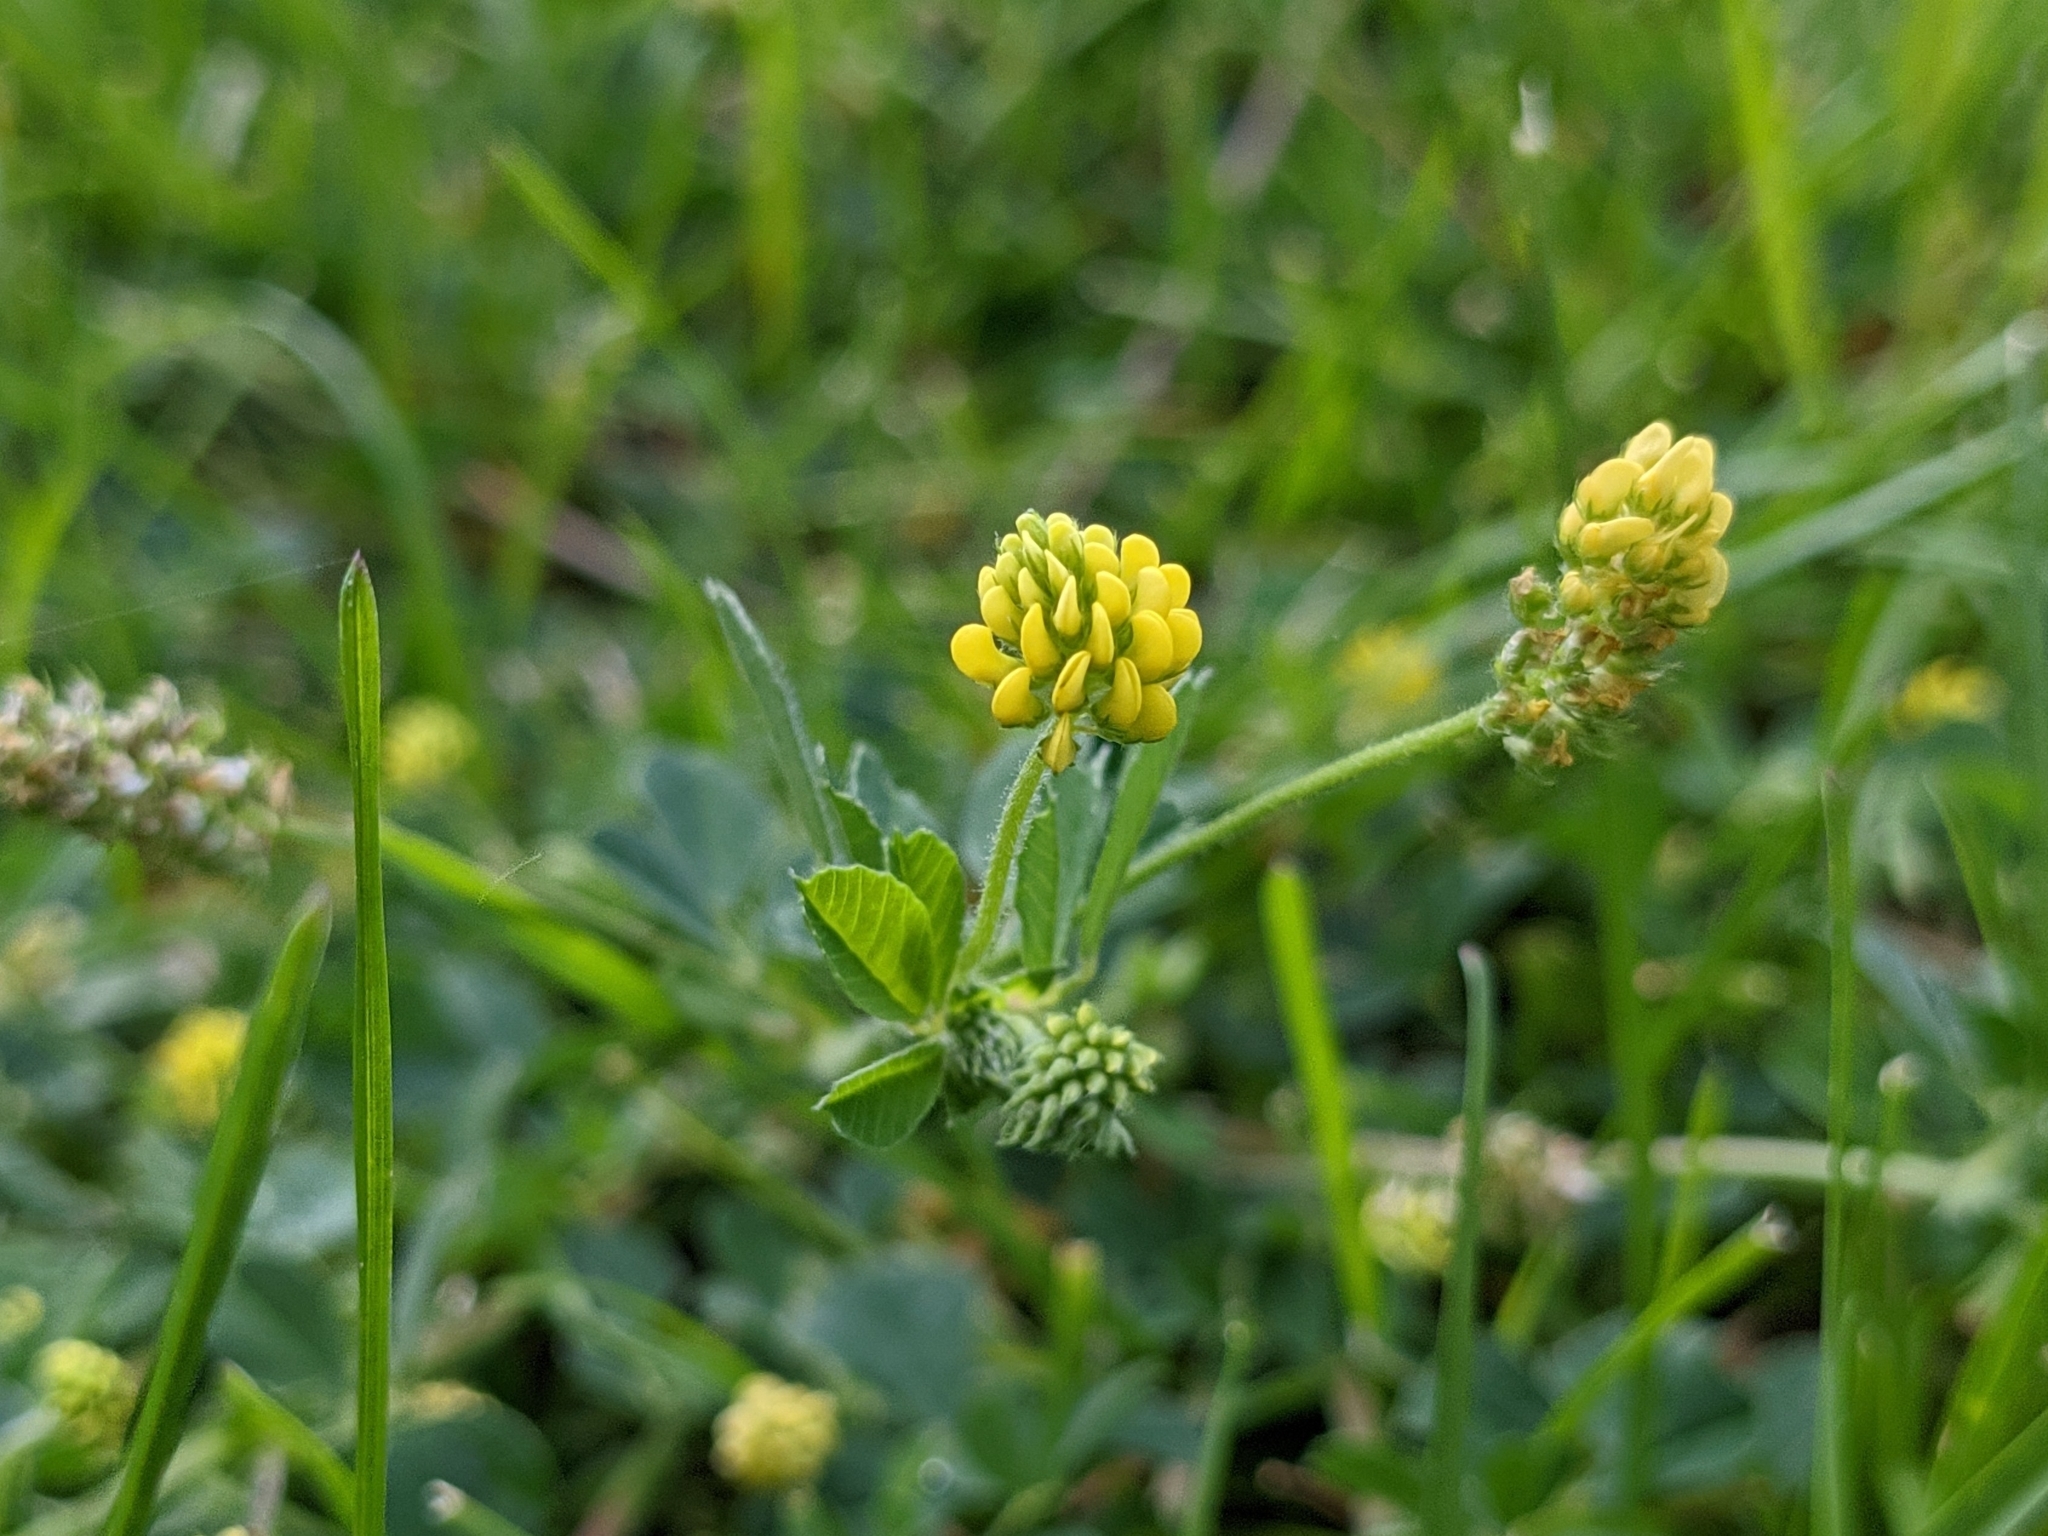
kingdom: Plantae
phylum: Tracheophyta
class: Magnoliopsida
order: Fabales
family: Fabaceae
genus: Medicago
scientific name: Medicago lupulina
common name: Black medick
